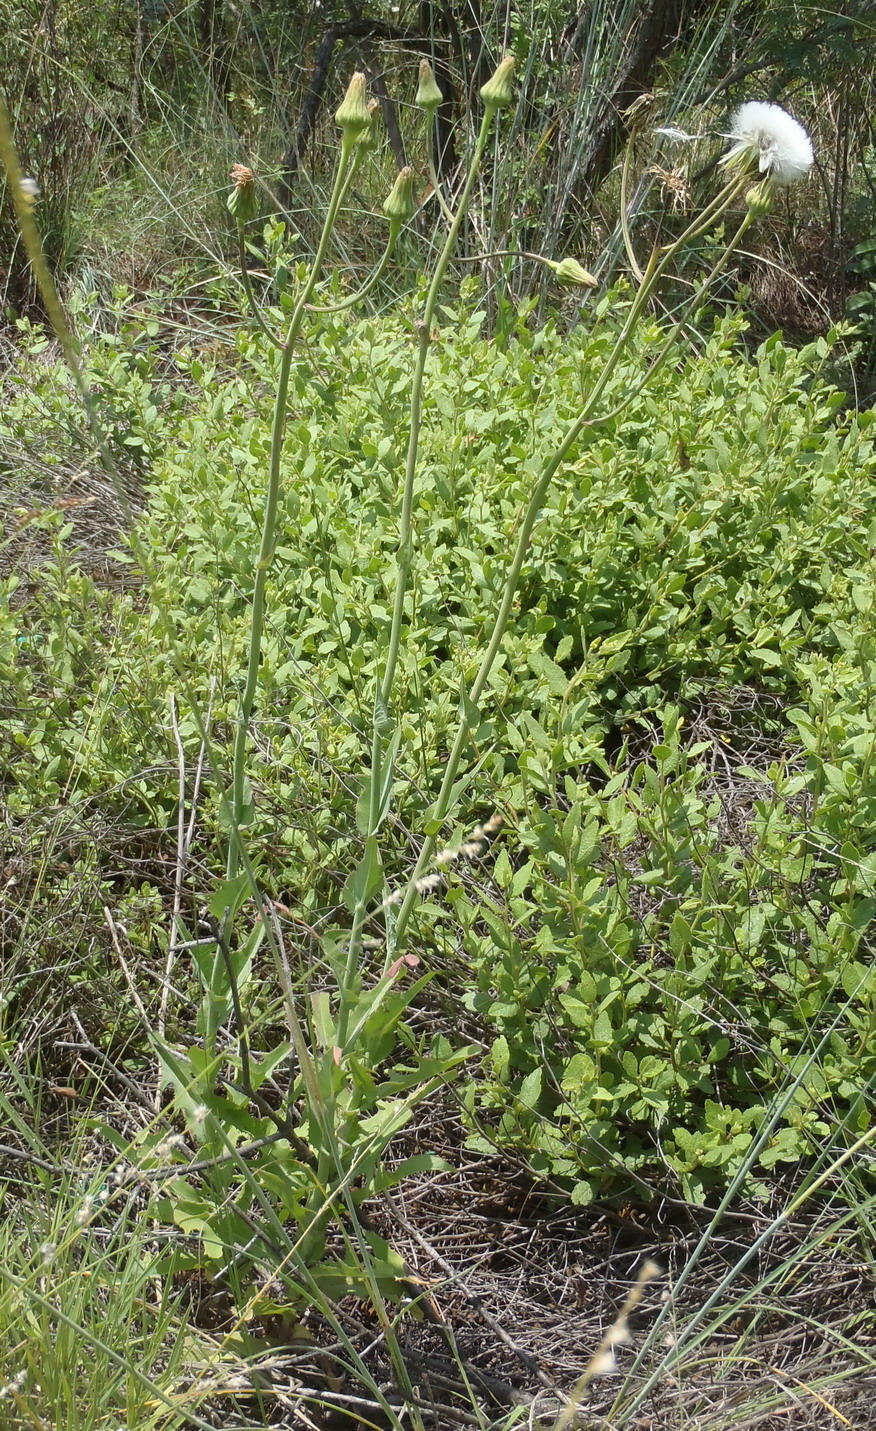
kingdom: Plantae
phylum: Tracheophyta
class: Magnoliopsida
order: Asterales
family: Asteraceae
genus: Sonchus
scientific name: Sonchus wilmsii
